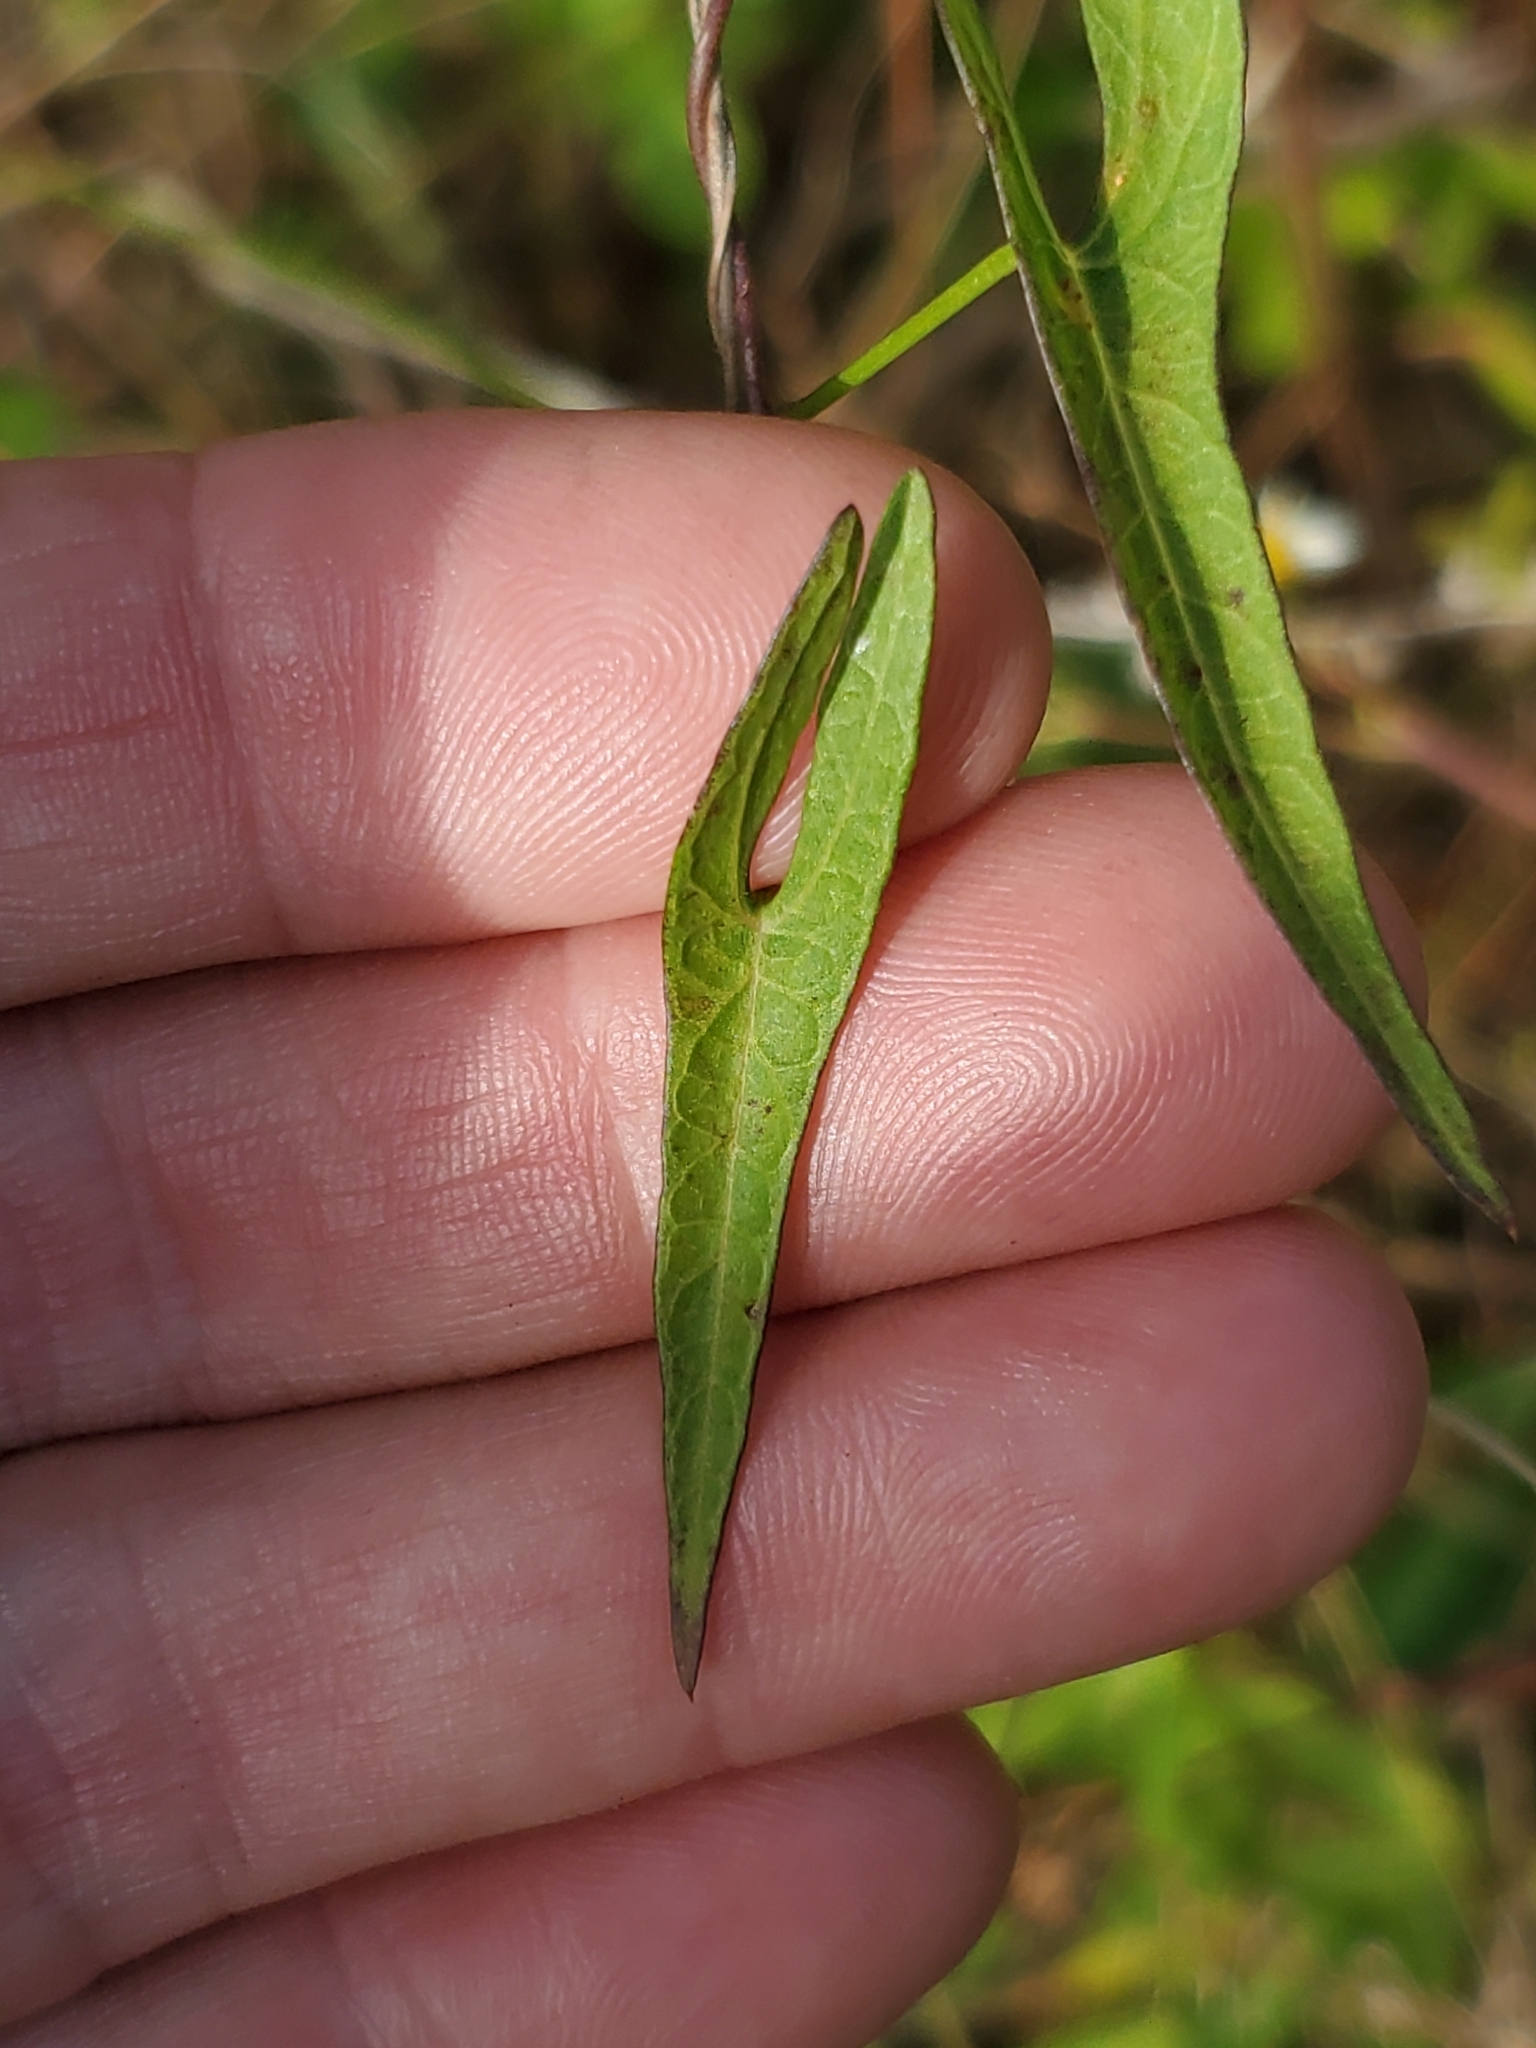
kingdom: Plantae
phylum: Tracheophyta
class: Magnoliopsida
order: Solanales
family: Convolvulaceae
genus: Ipomoea
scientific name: Ipomoea sagittata
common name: Saltmarsh morning glory
